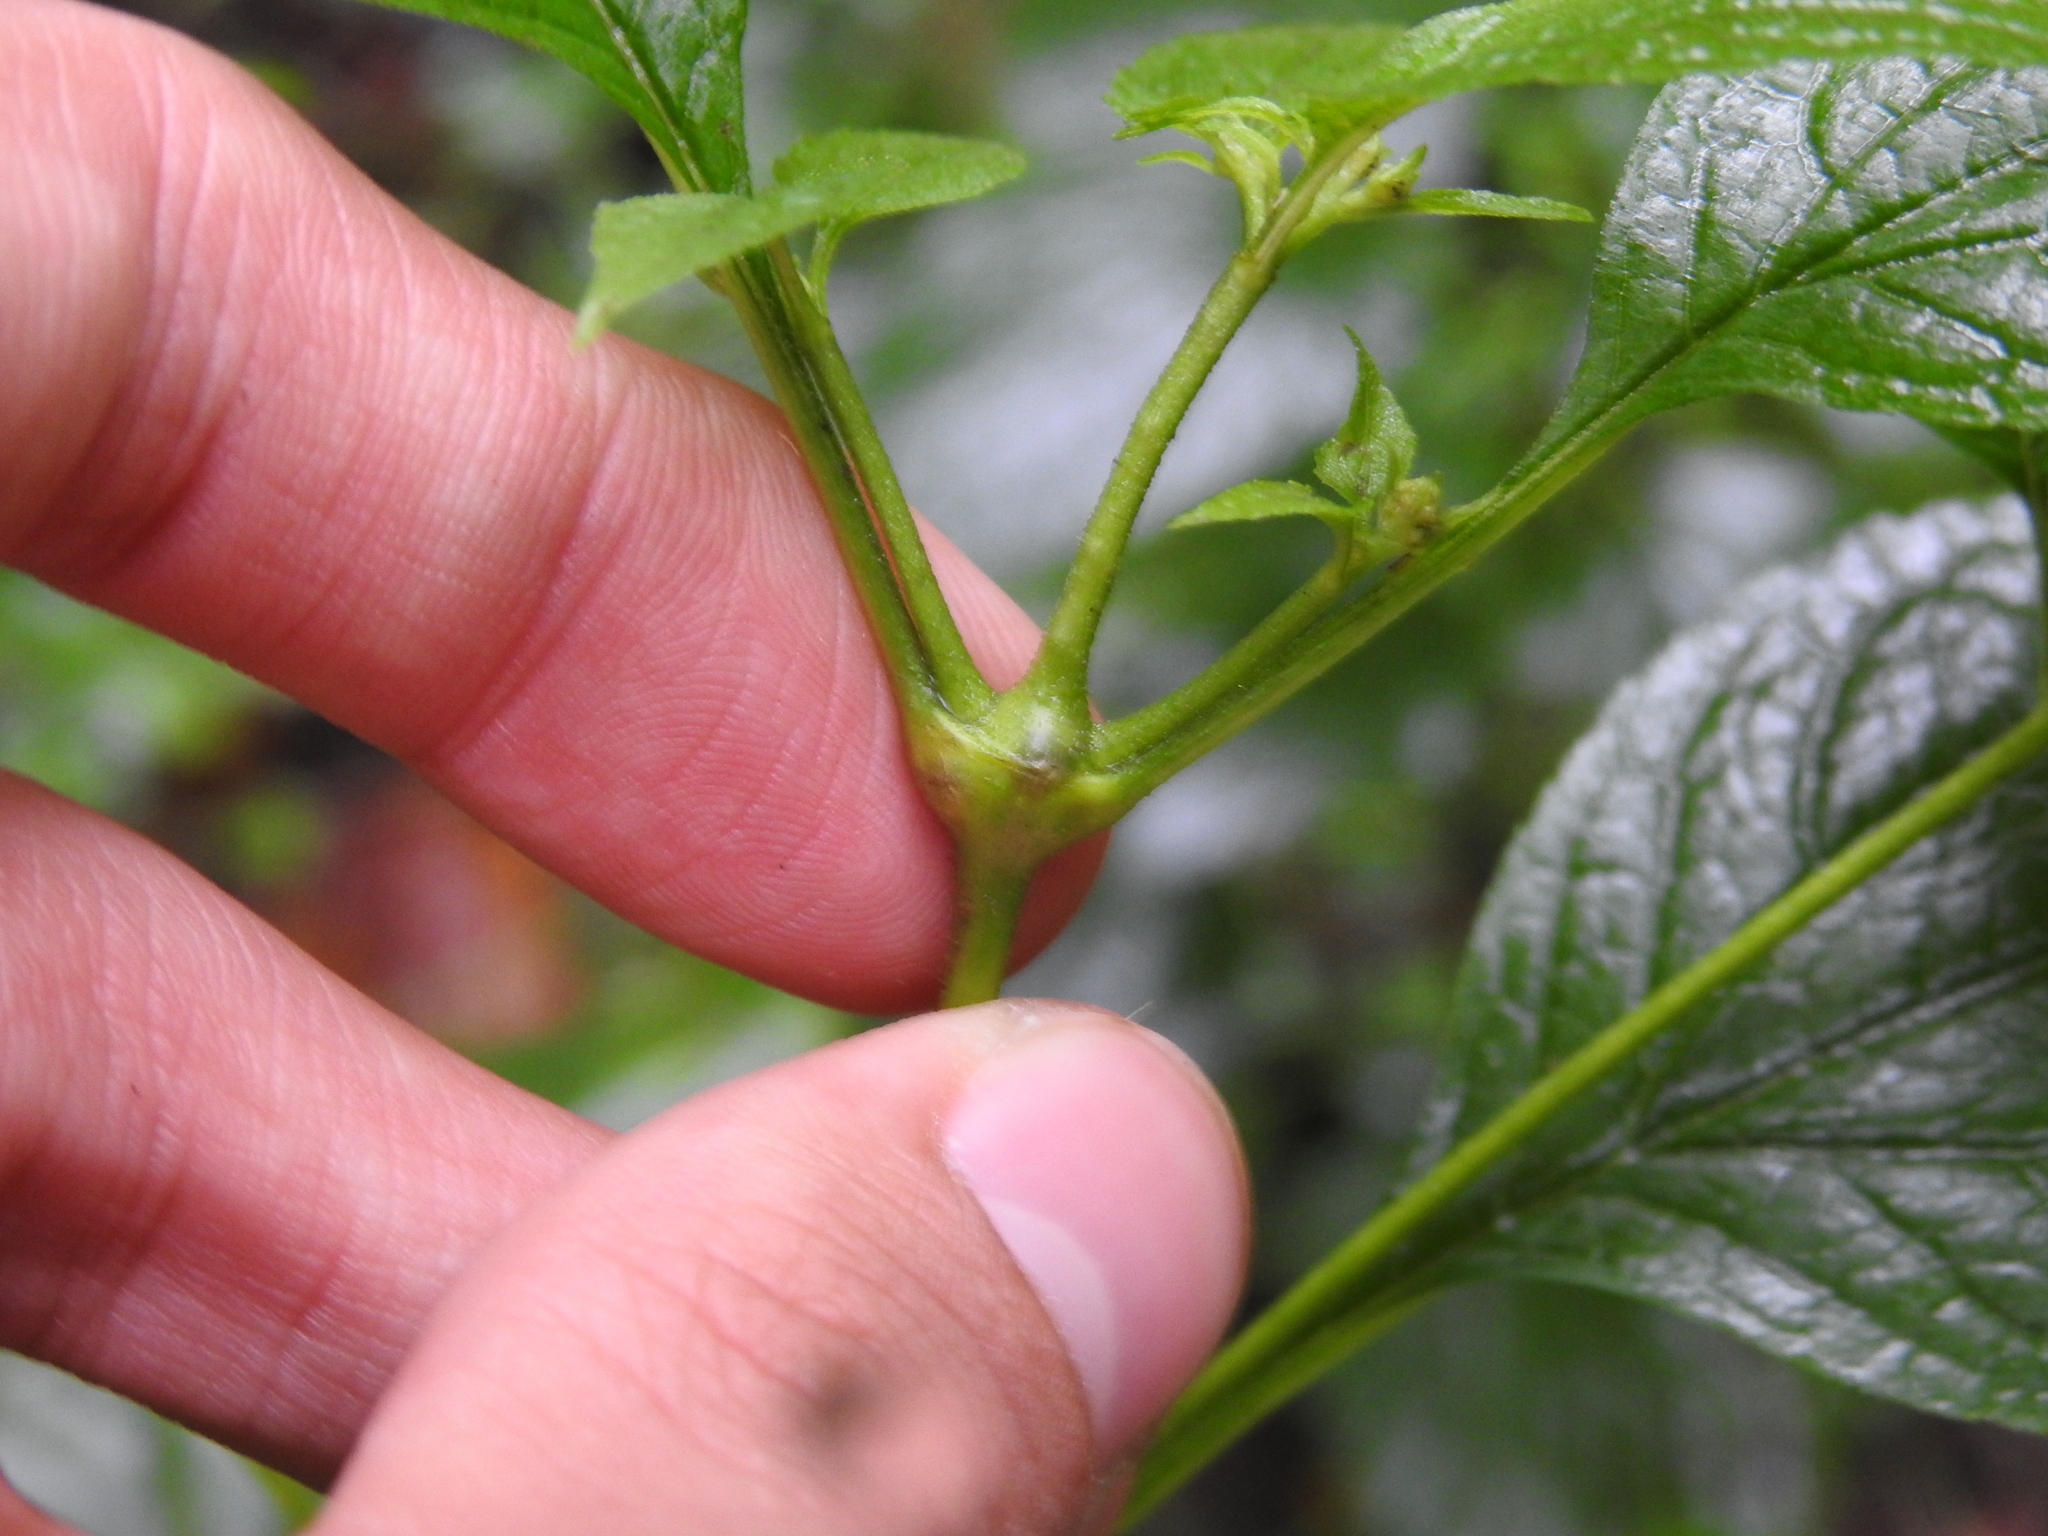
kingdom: Animalia
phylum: Arthropoda
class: Insecta
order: Diptera
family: Cecidomyiidae
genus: Neolasioptera
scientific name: Neolasioptera eupatorii
